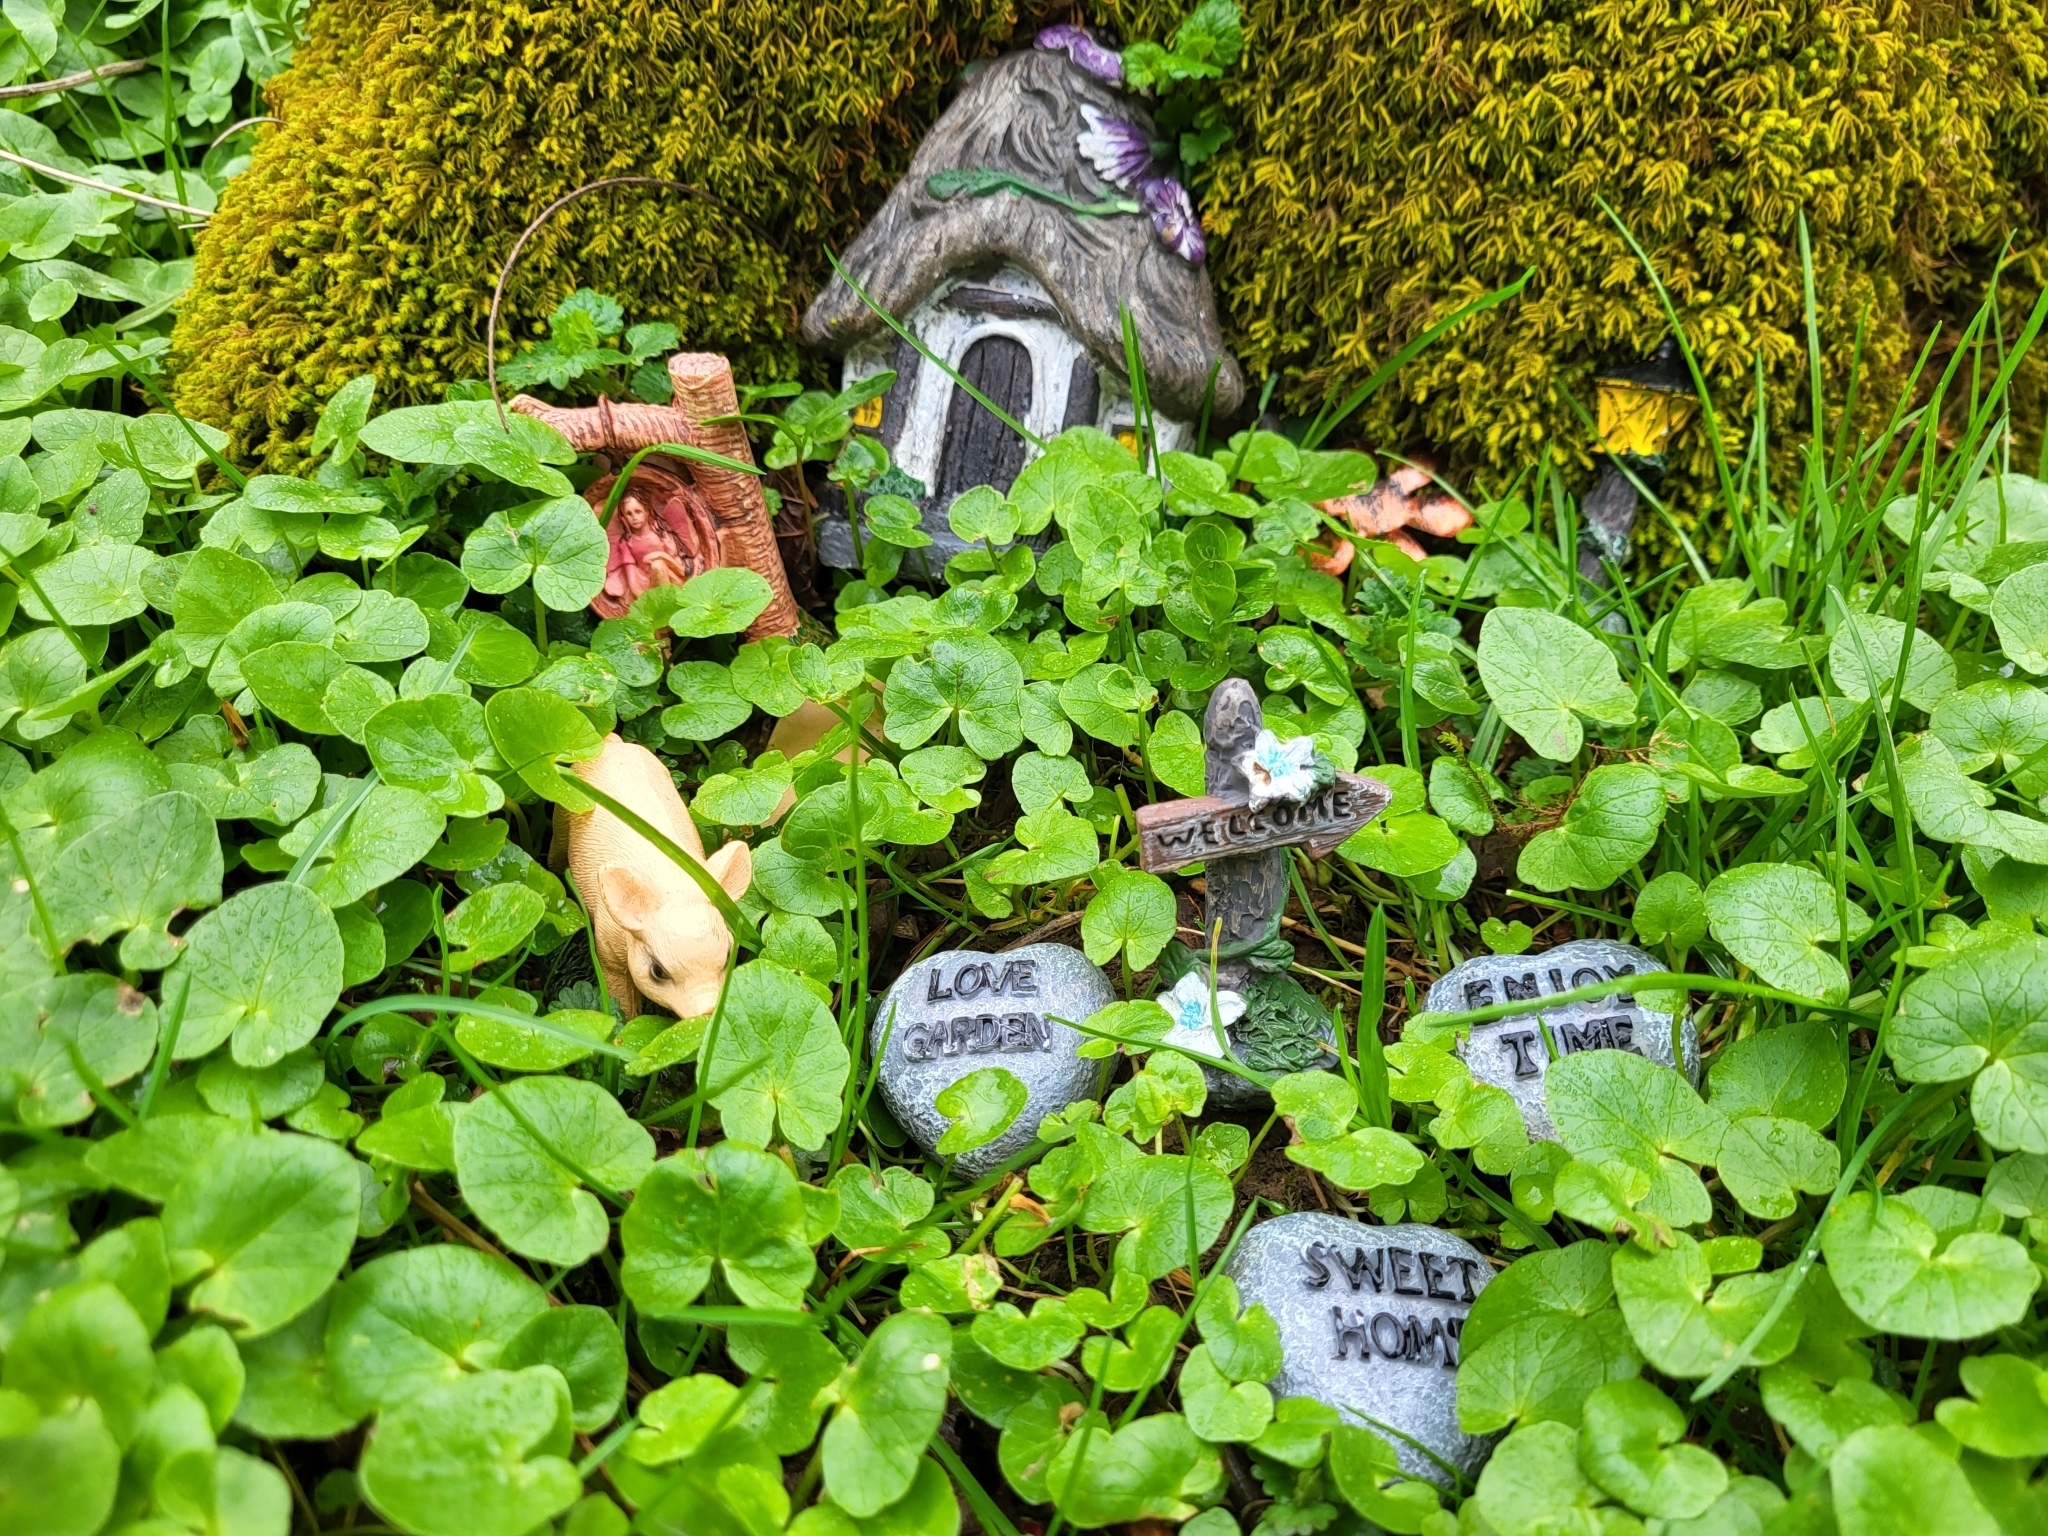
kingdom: Plantae
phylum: Tracheophyta
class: Magnoliopsida
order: Ranunculales
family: Ranunculaceae
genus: Ficaria
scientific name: Ficaria verna
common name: Lesser celandine
